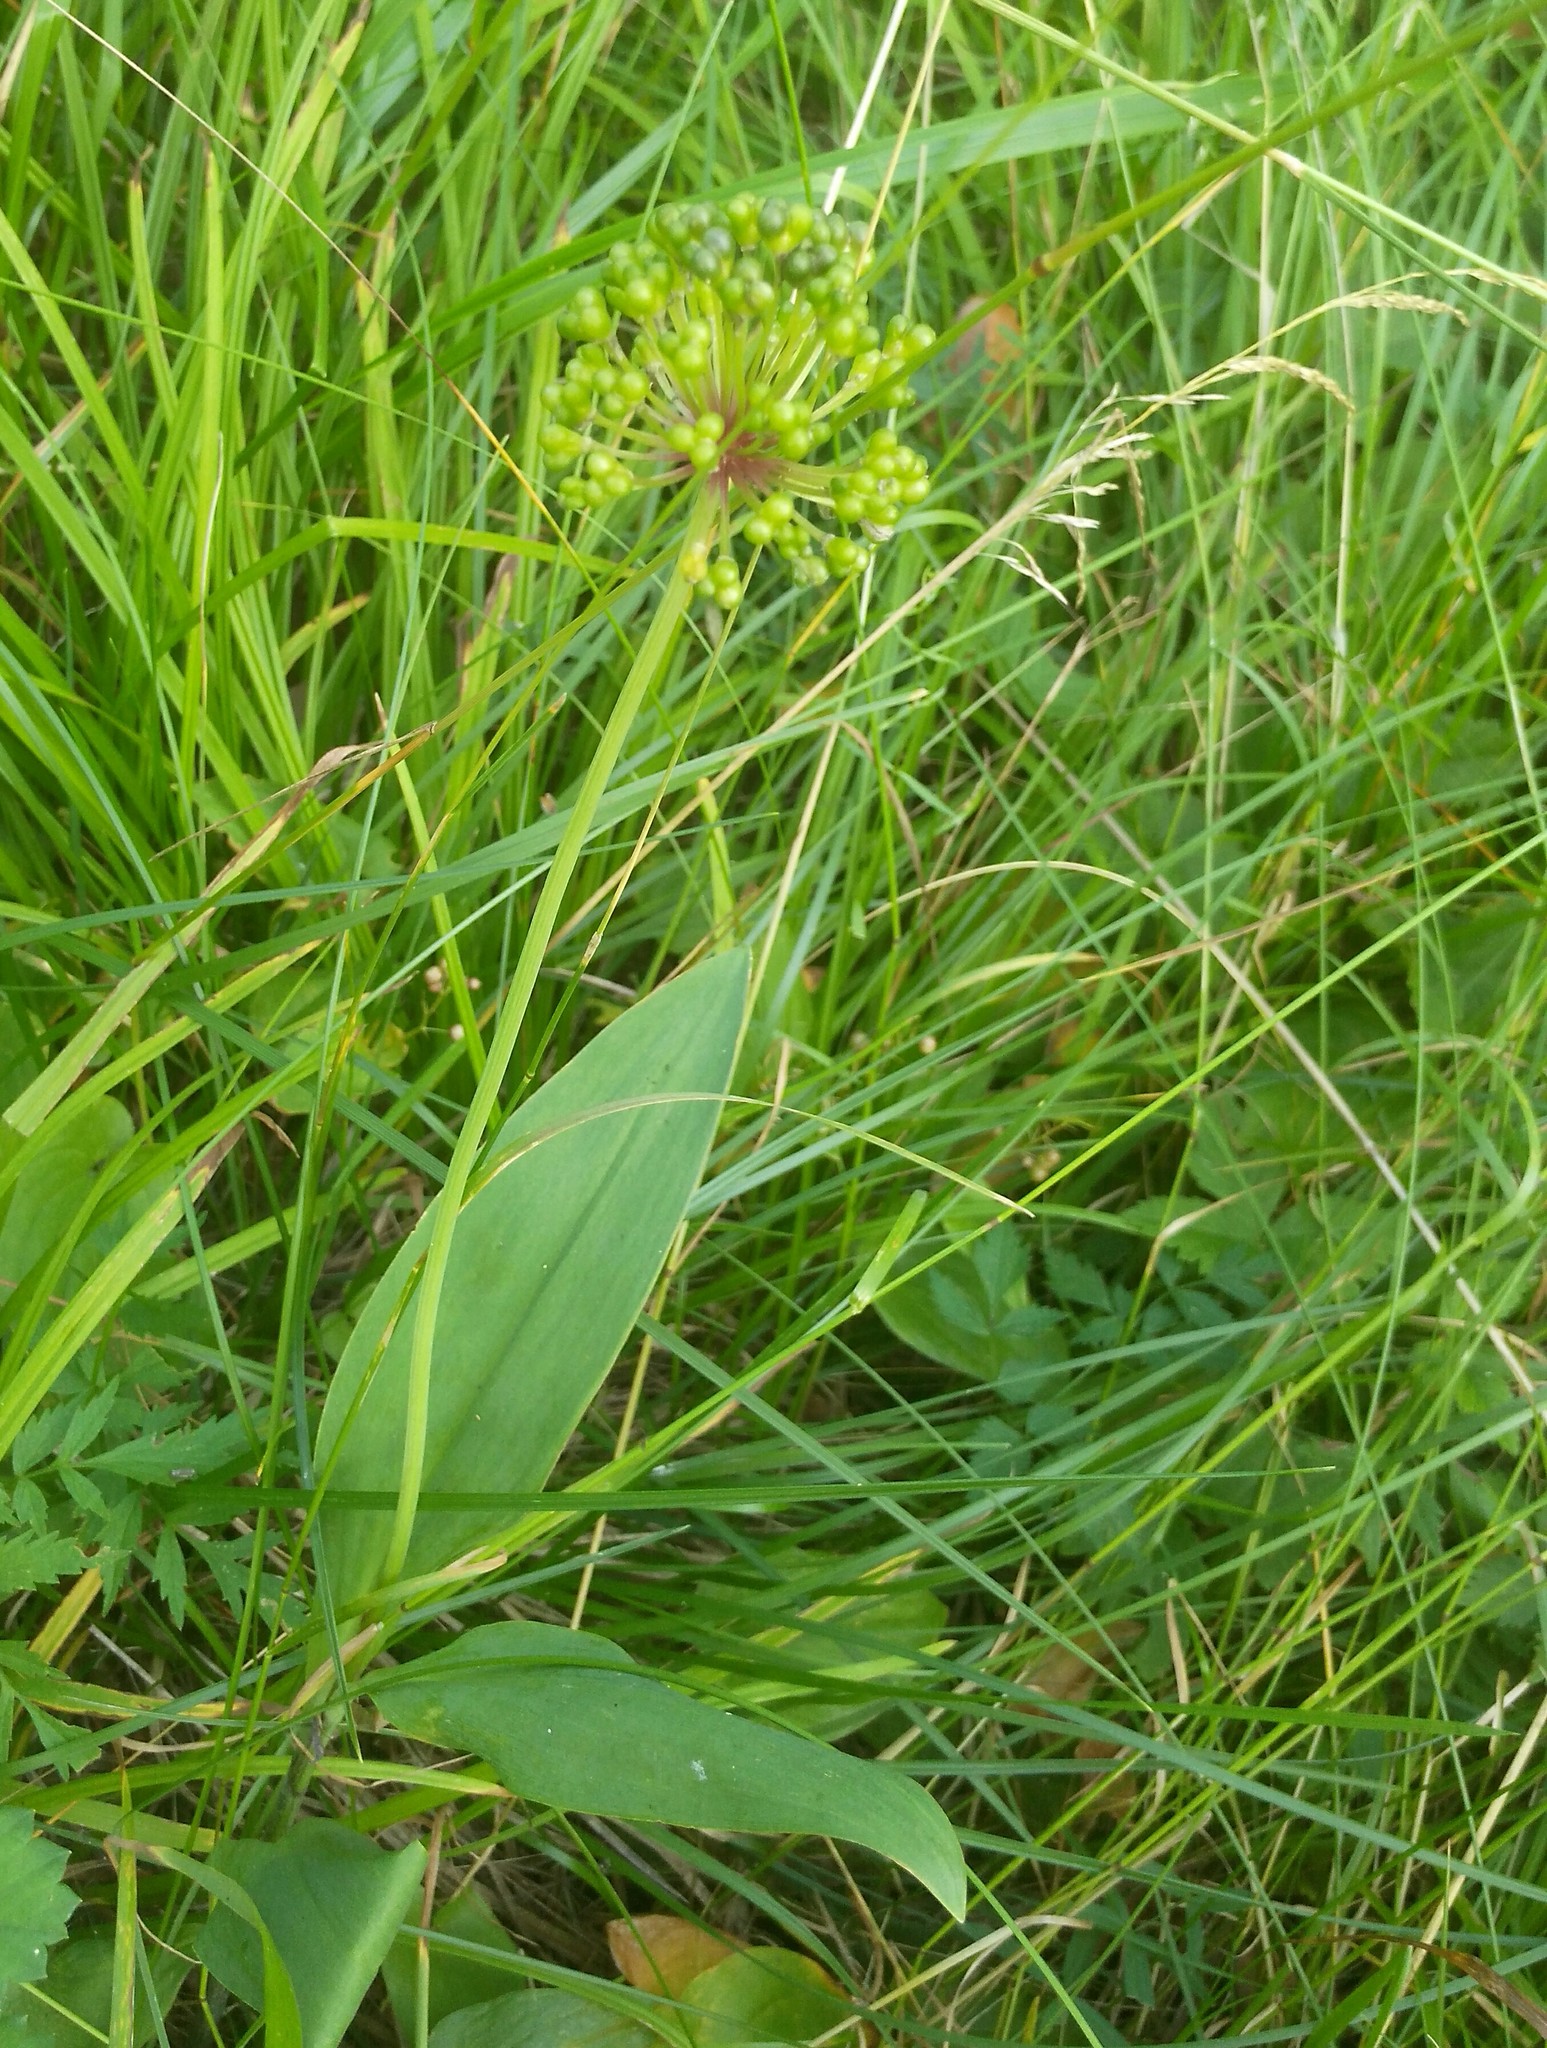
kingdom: Plantae
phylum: Tracheophyta
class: Liliopsida
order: Asparagales
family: Amaryllidaceae
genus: Allium
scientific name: Allium microdictyon
